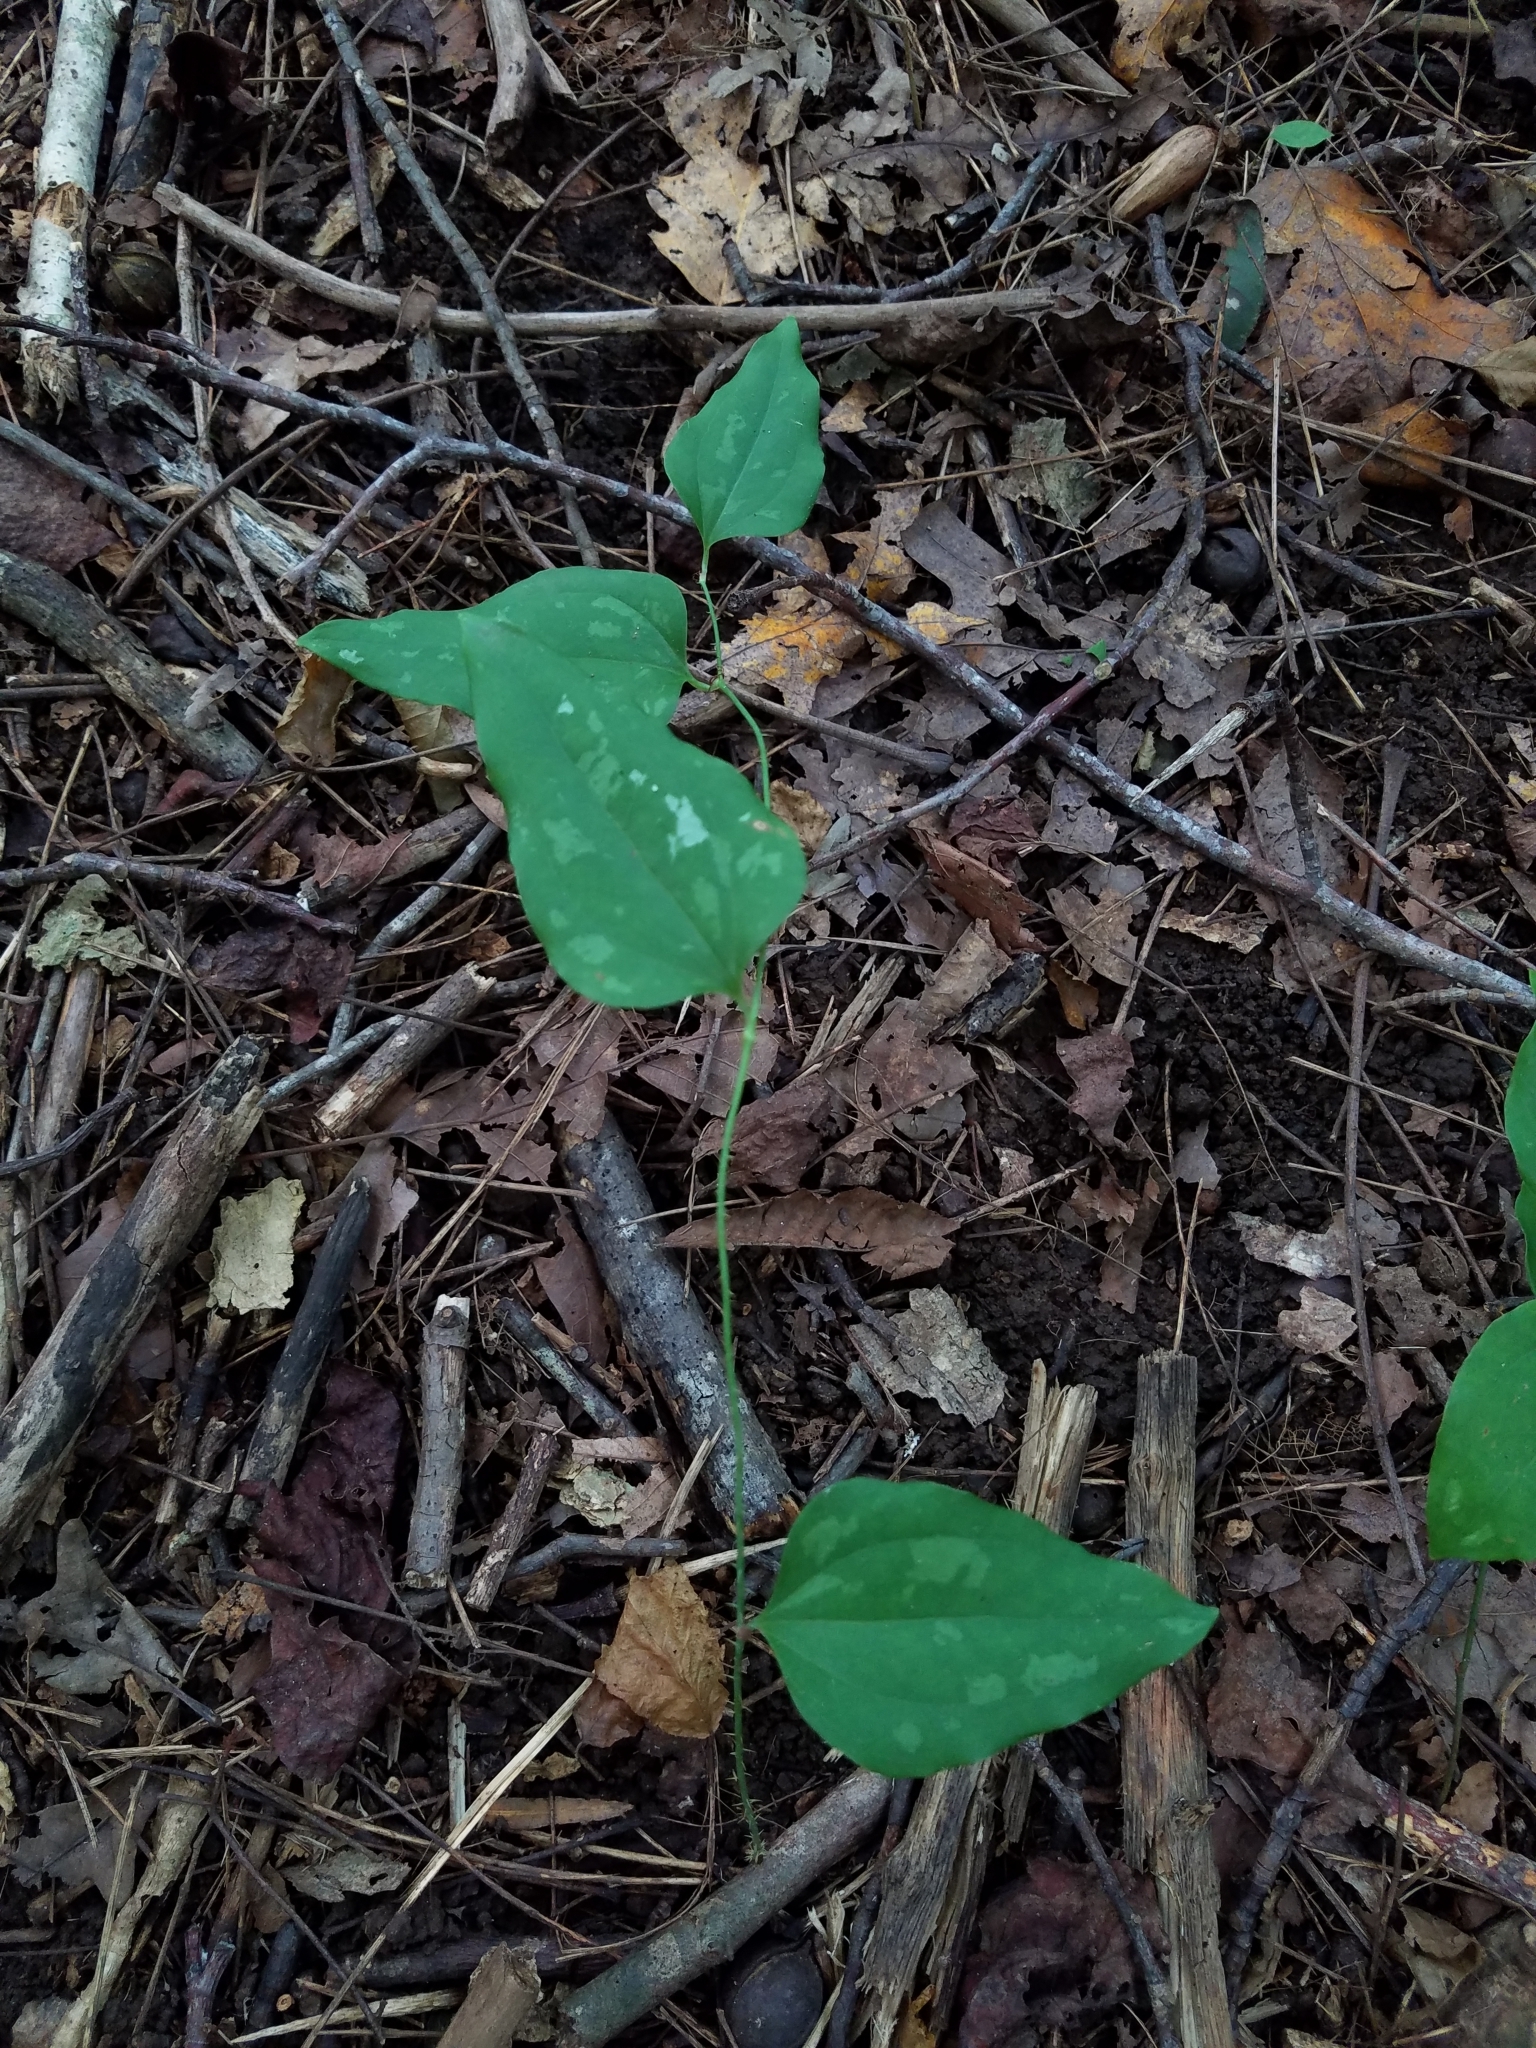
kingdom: Plantae
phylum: Tracheophyta
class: Liliopsida
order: Liliales
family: Smilacaceae
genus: Smilax
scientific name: Smilax glauca
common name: Cat greenbrier
